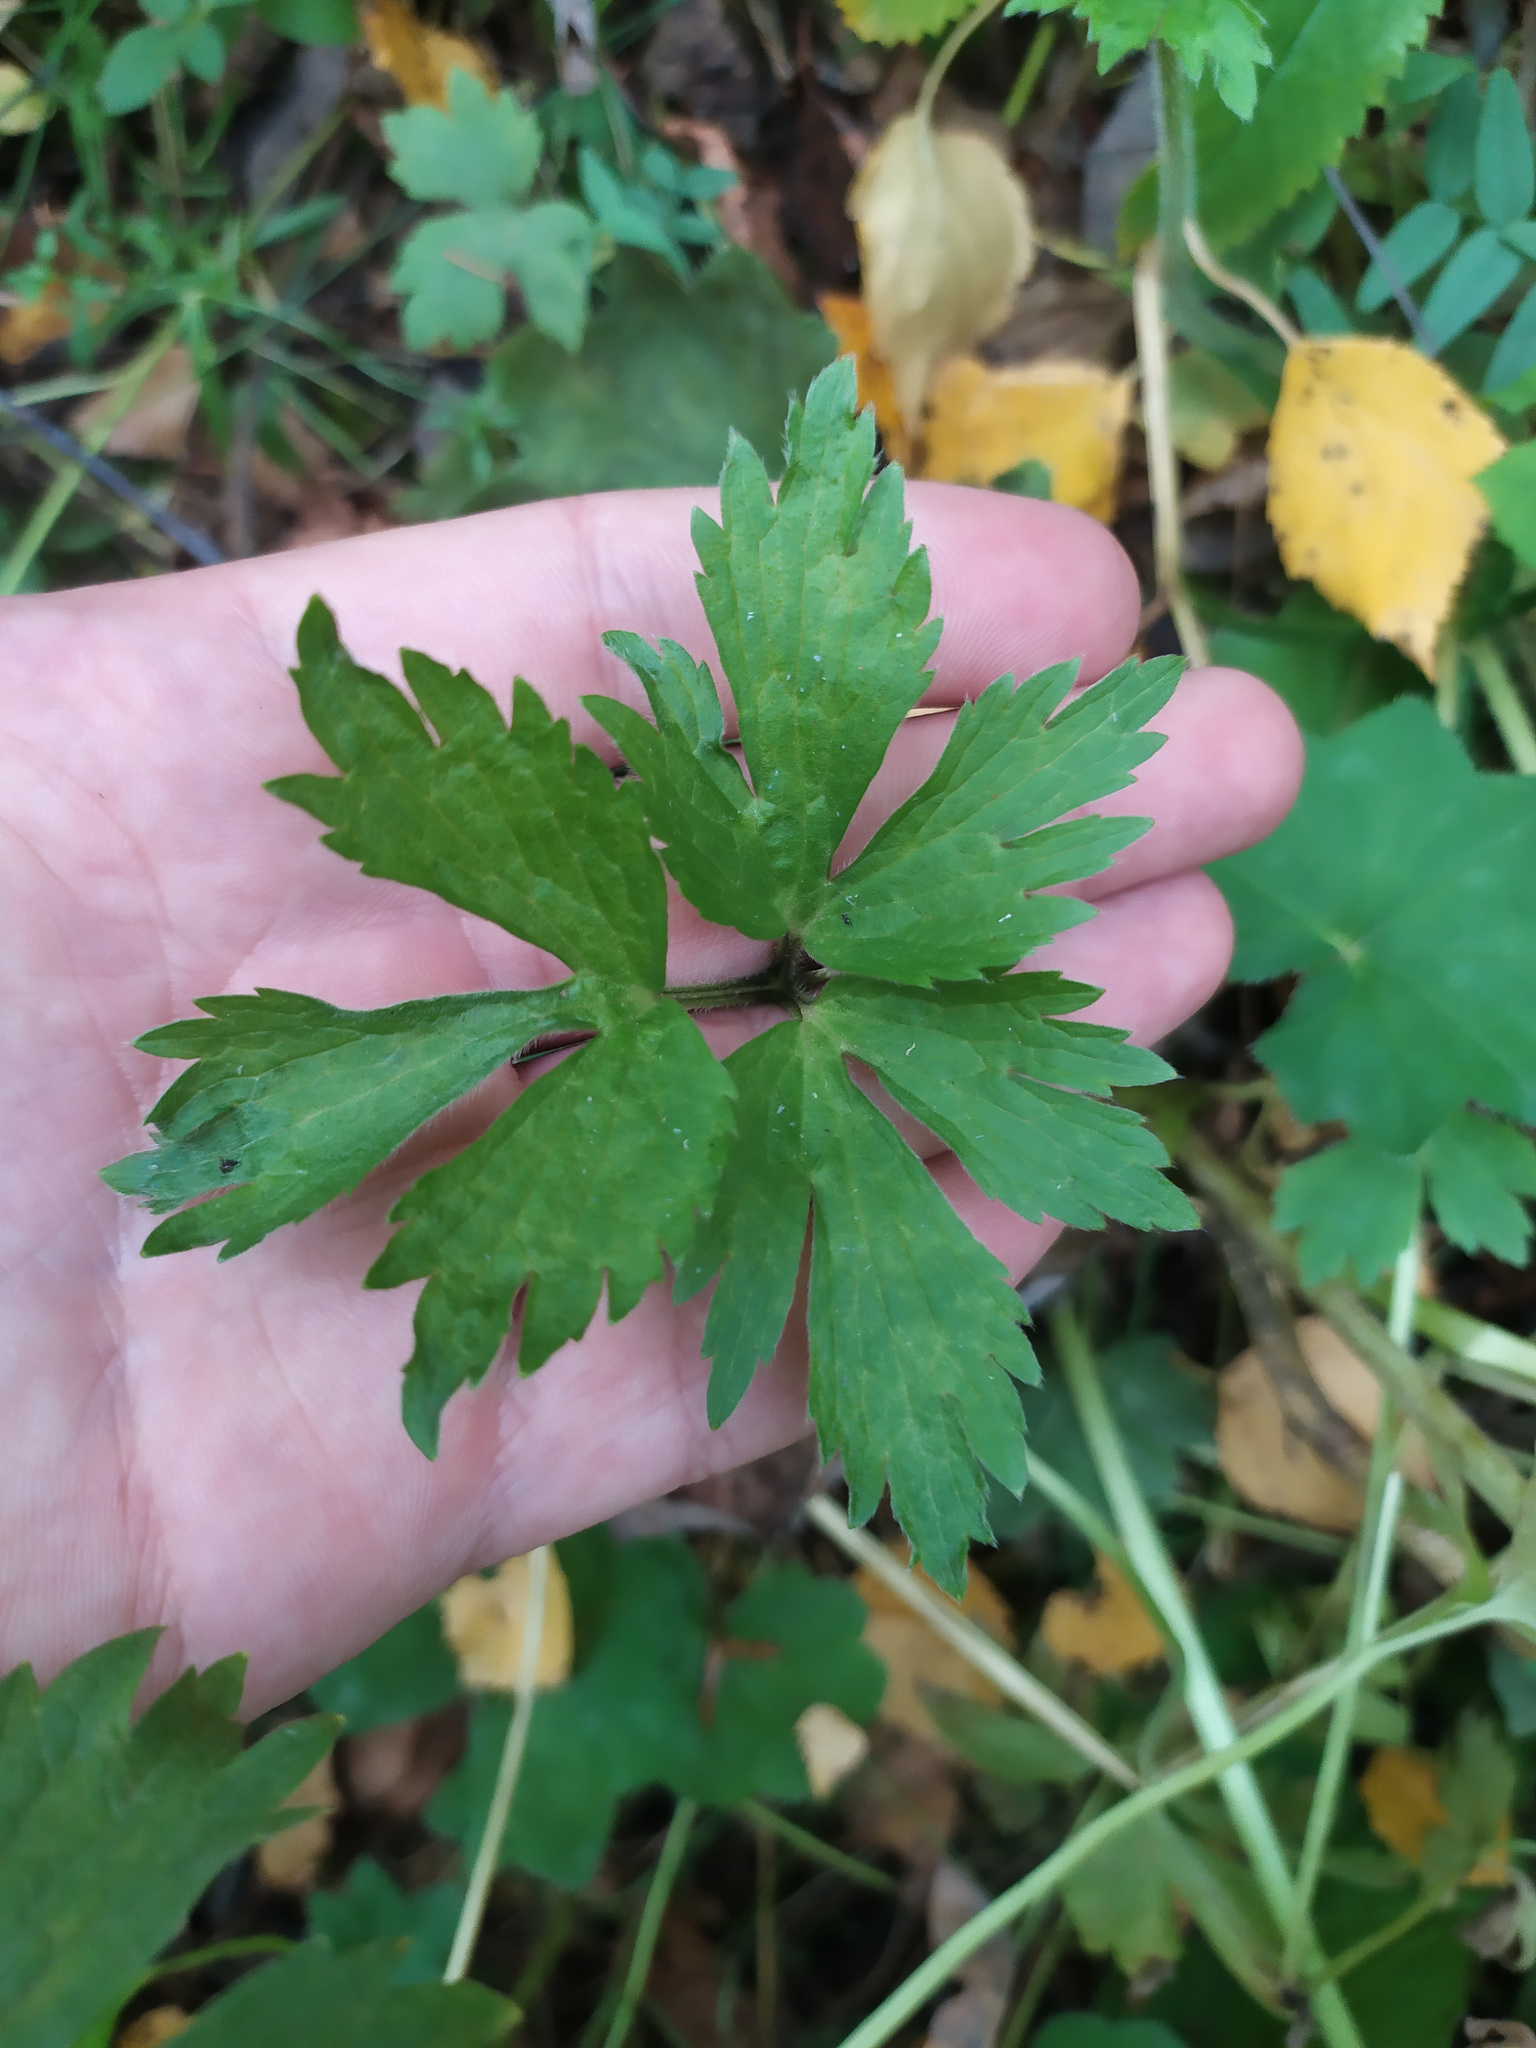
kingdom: Plantae
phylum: Tracheophyta
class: Magnoliopsida
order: Ranunculales
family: Ranunculaceae
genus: Ranunculus
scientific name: Ranunculus repens
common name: Creeping buttercup
